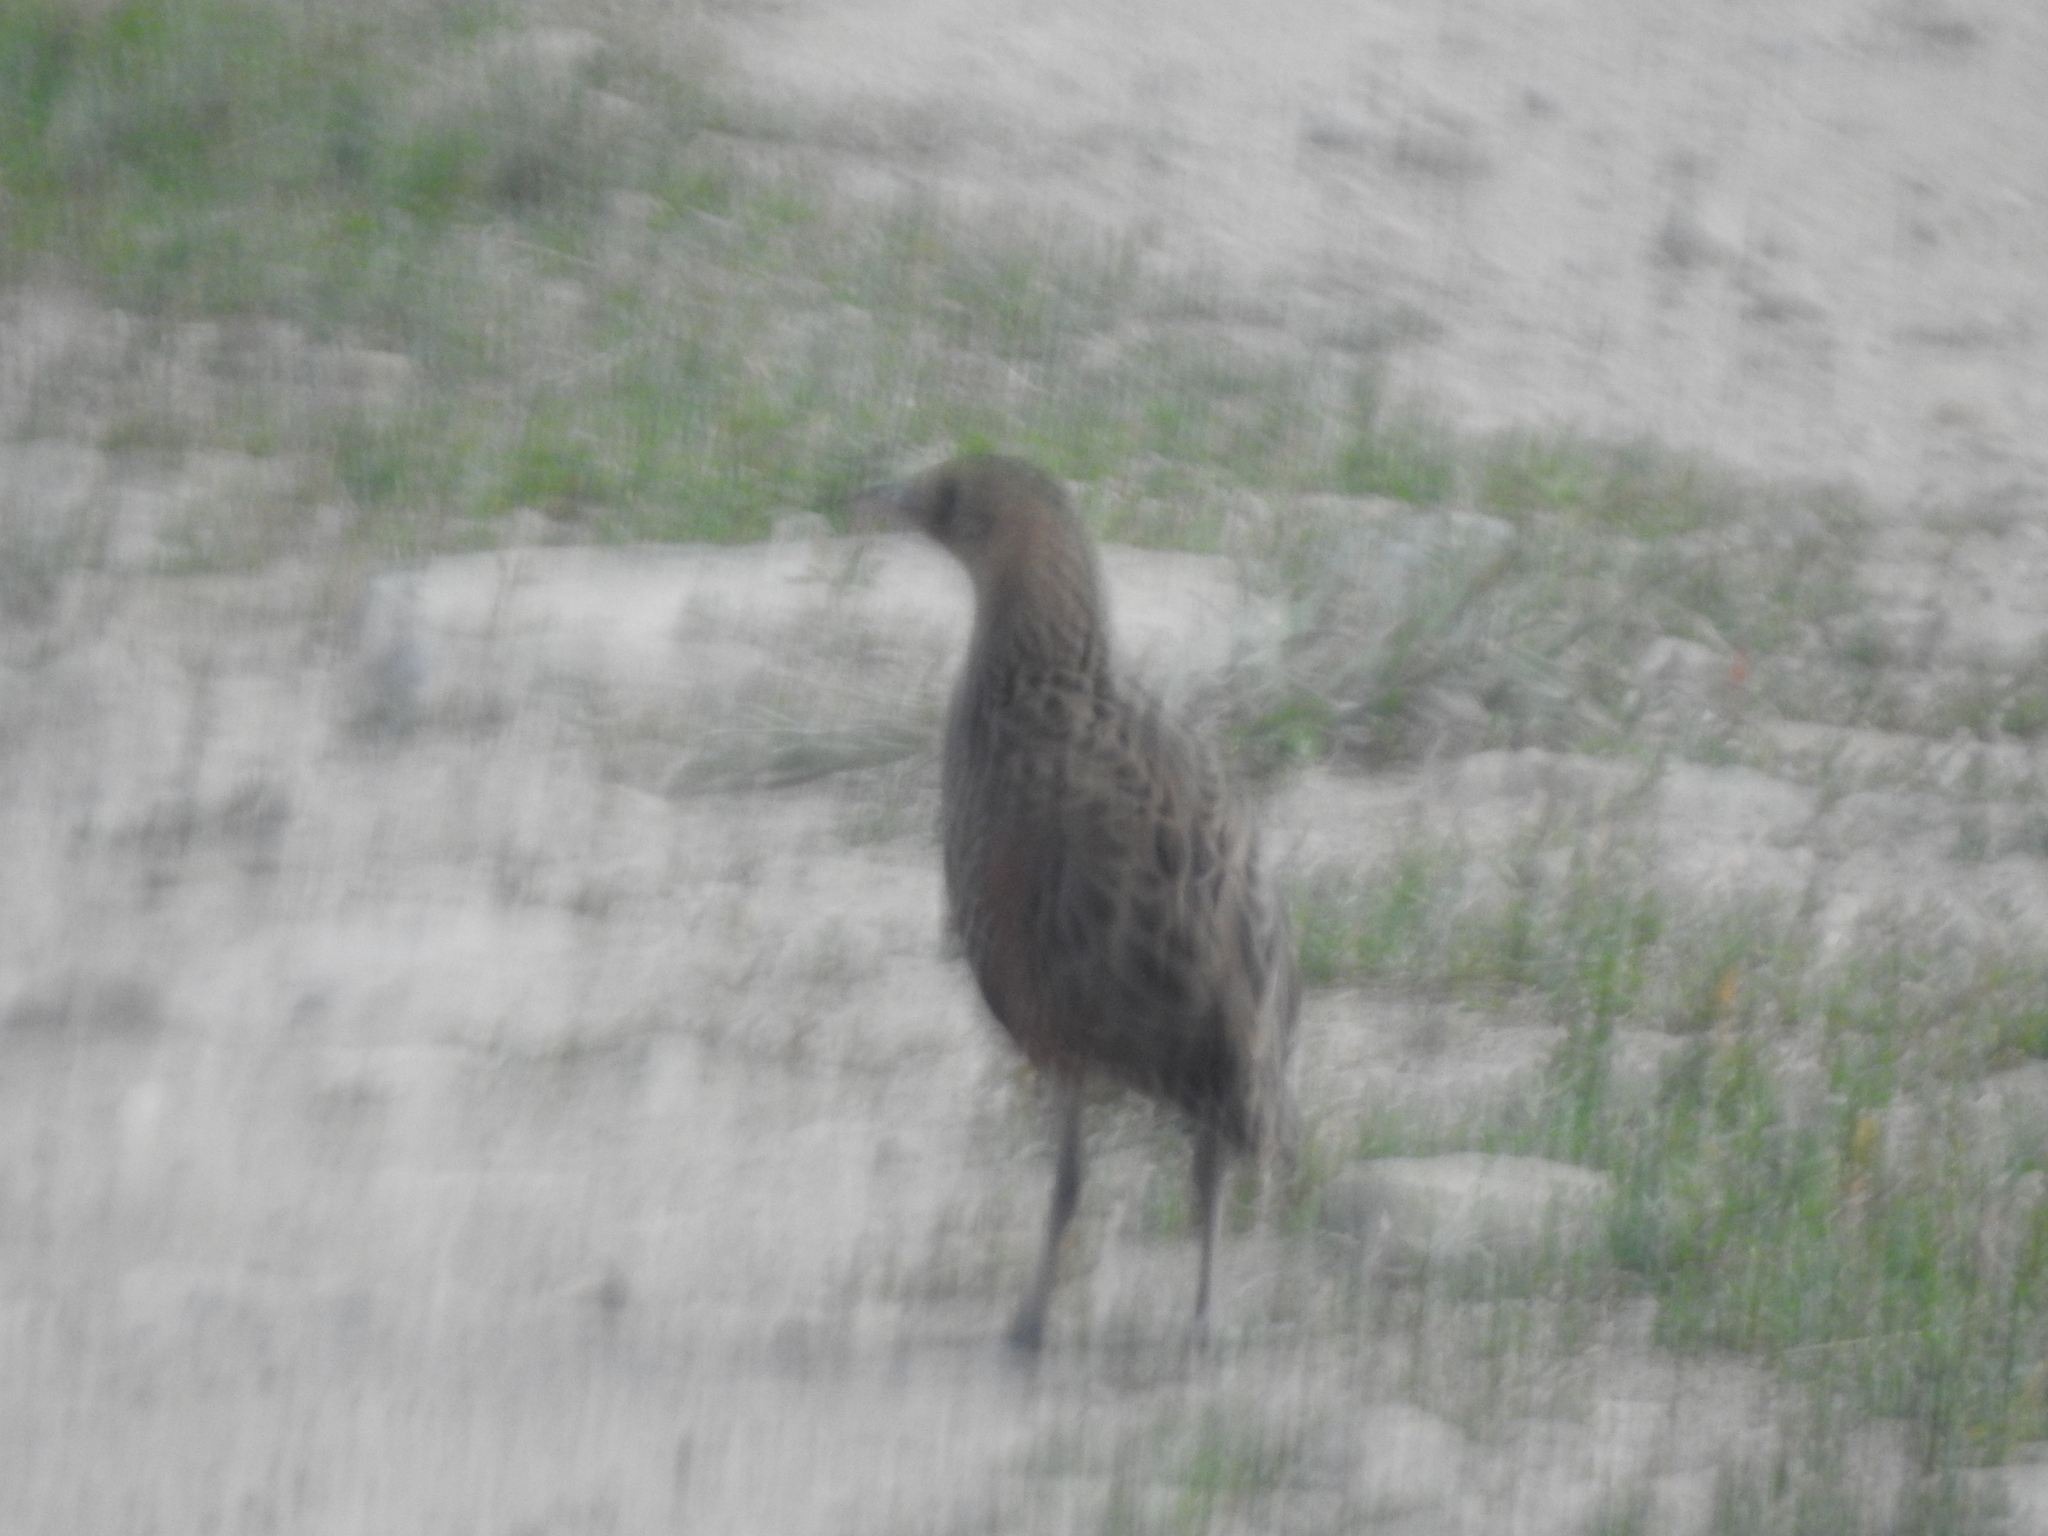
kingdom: Animalia
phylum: Chordata
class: Aves
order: Gruiformes
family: Rallidae
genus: Crex
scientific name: Crex crex
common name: Corn crake
